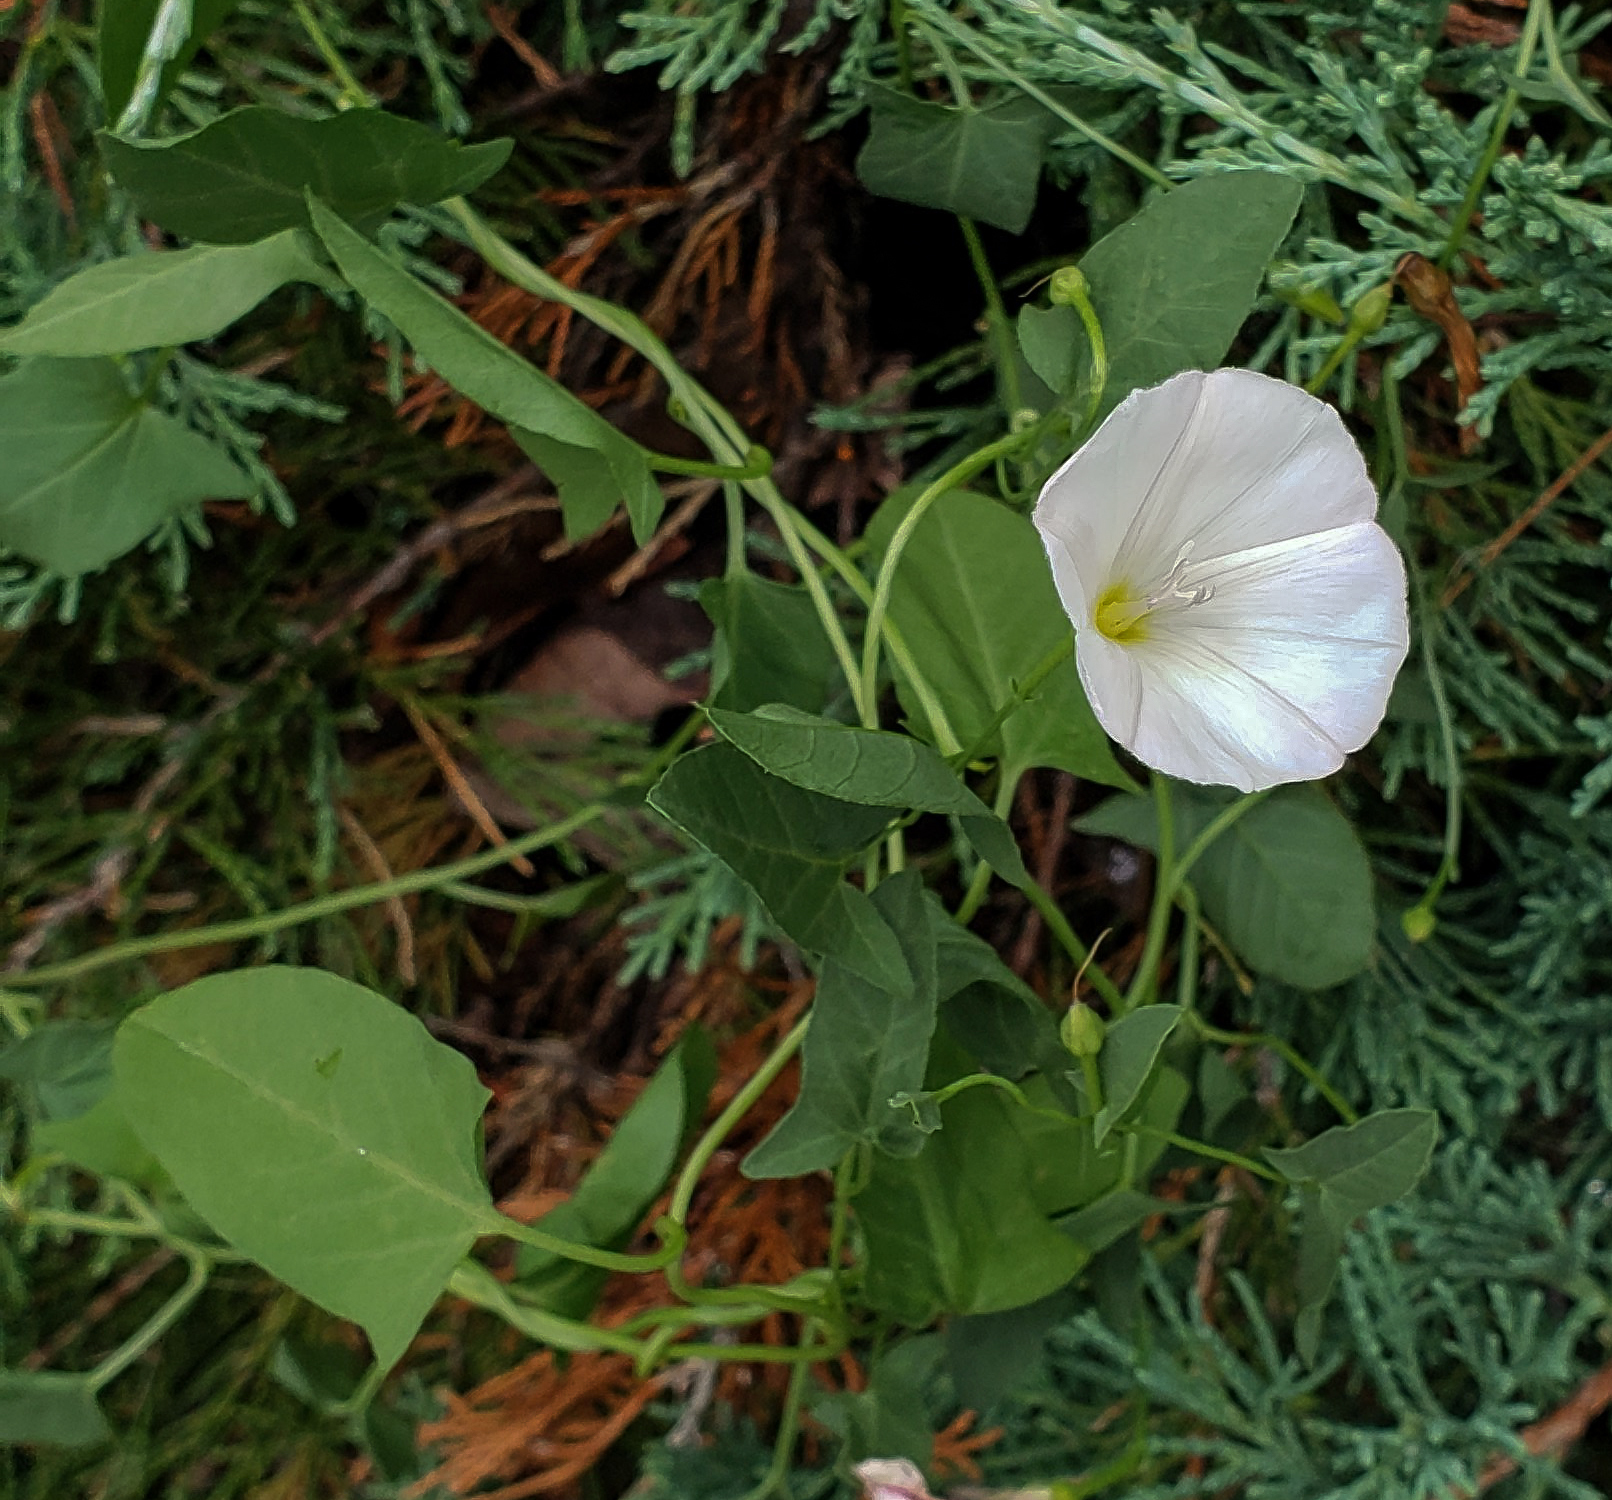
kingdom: Plantae
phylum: Tracheophyta
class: Magnoliopsida
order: Solanales
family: Convolvulaceae
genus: Convolvulus
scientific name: Convolvulus arvensis
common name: Field bindweed
